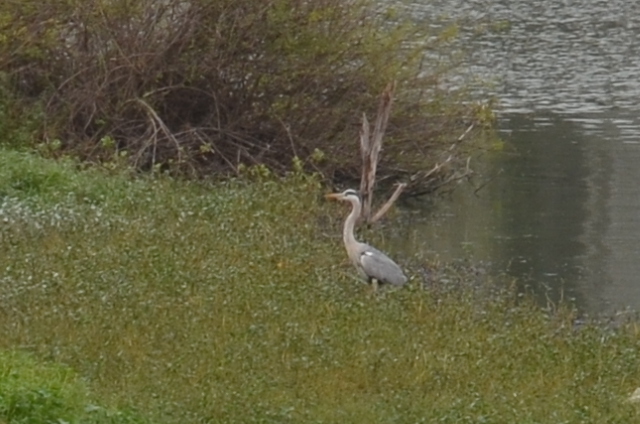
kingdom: Animalia
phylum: Chordata
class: Aves
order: Pelecaniformes
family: Ardeidae
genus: Ardea
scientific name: Ardea cinerea
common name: Grey heron
